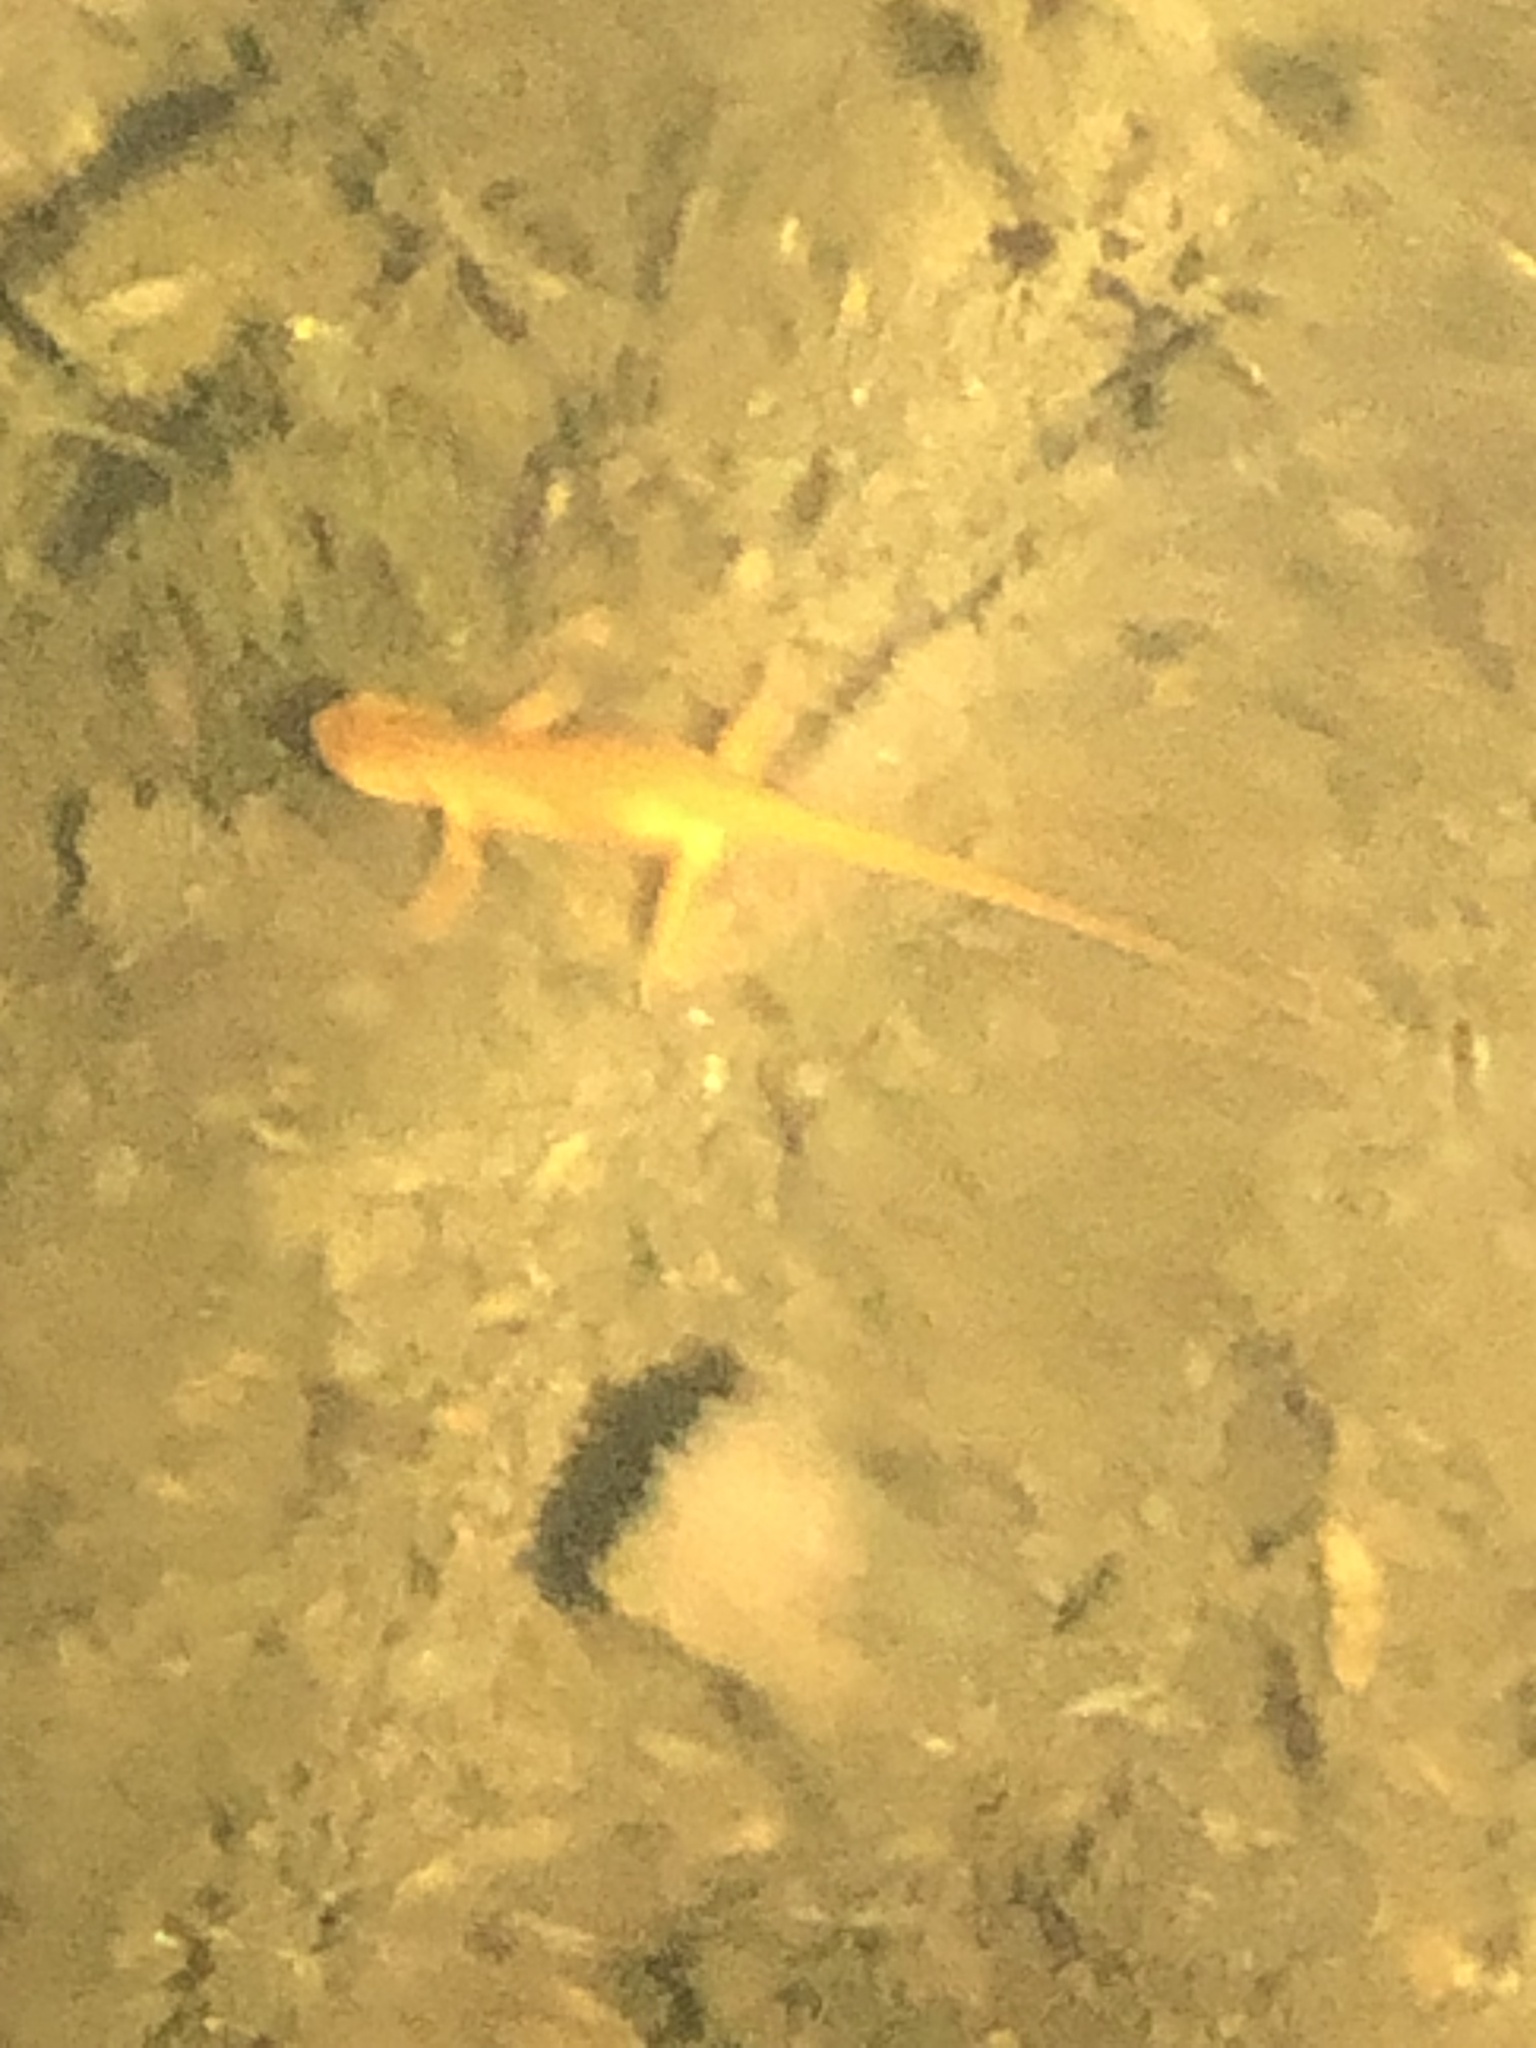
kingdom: Animalia
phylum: Chordata
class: Amphibia
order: Caudata
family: Salamandridae
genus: Notophthalmus
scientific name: Notophthalmus viridescens
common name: Eastern newt
